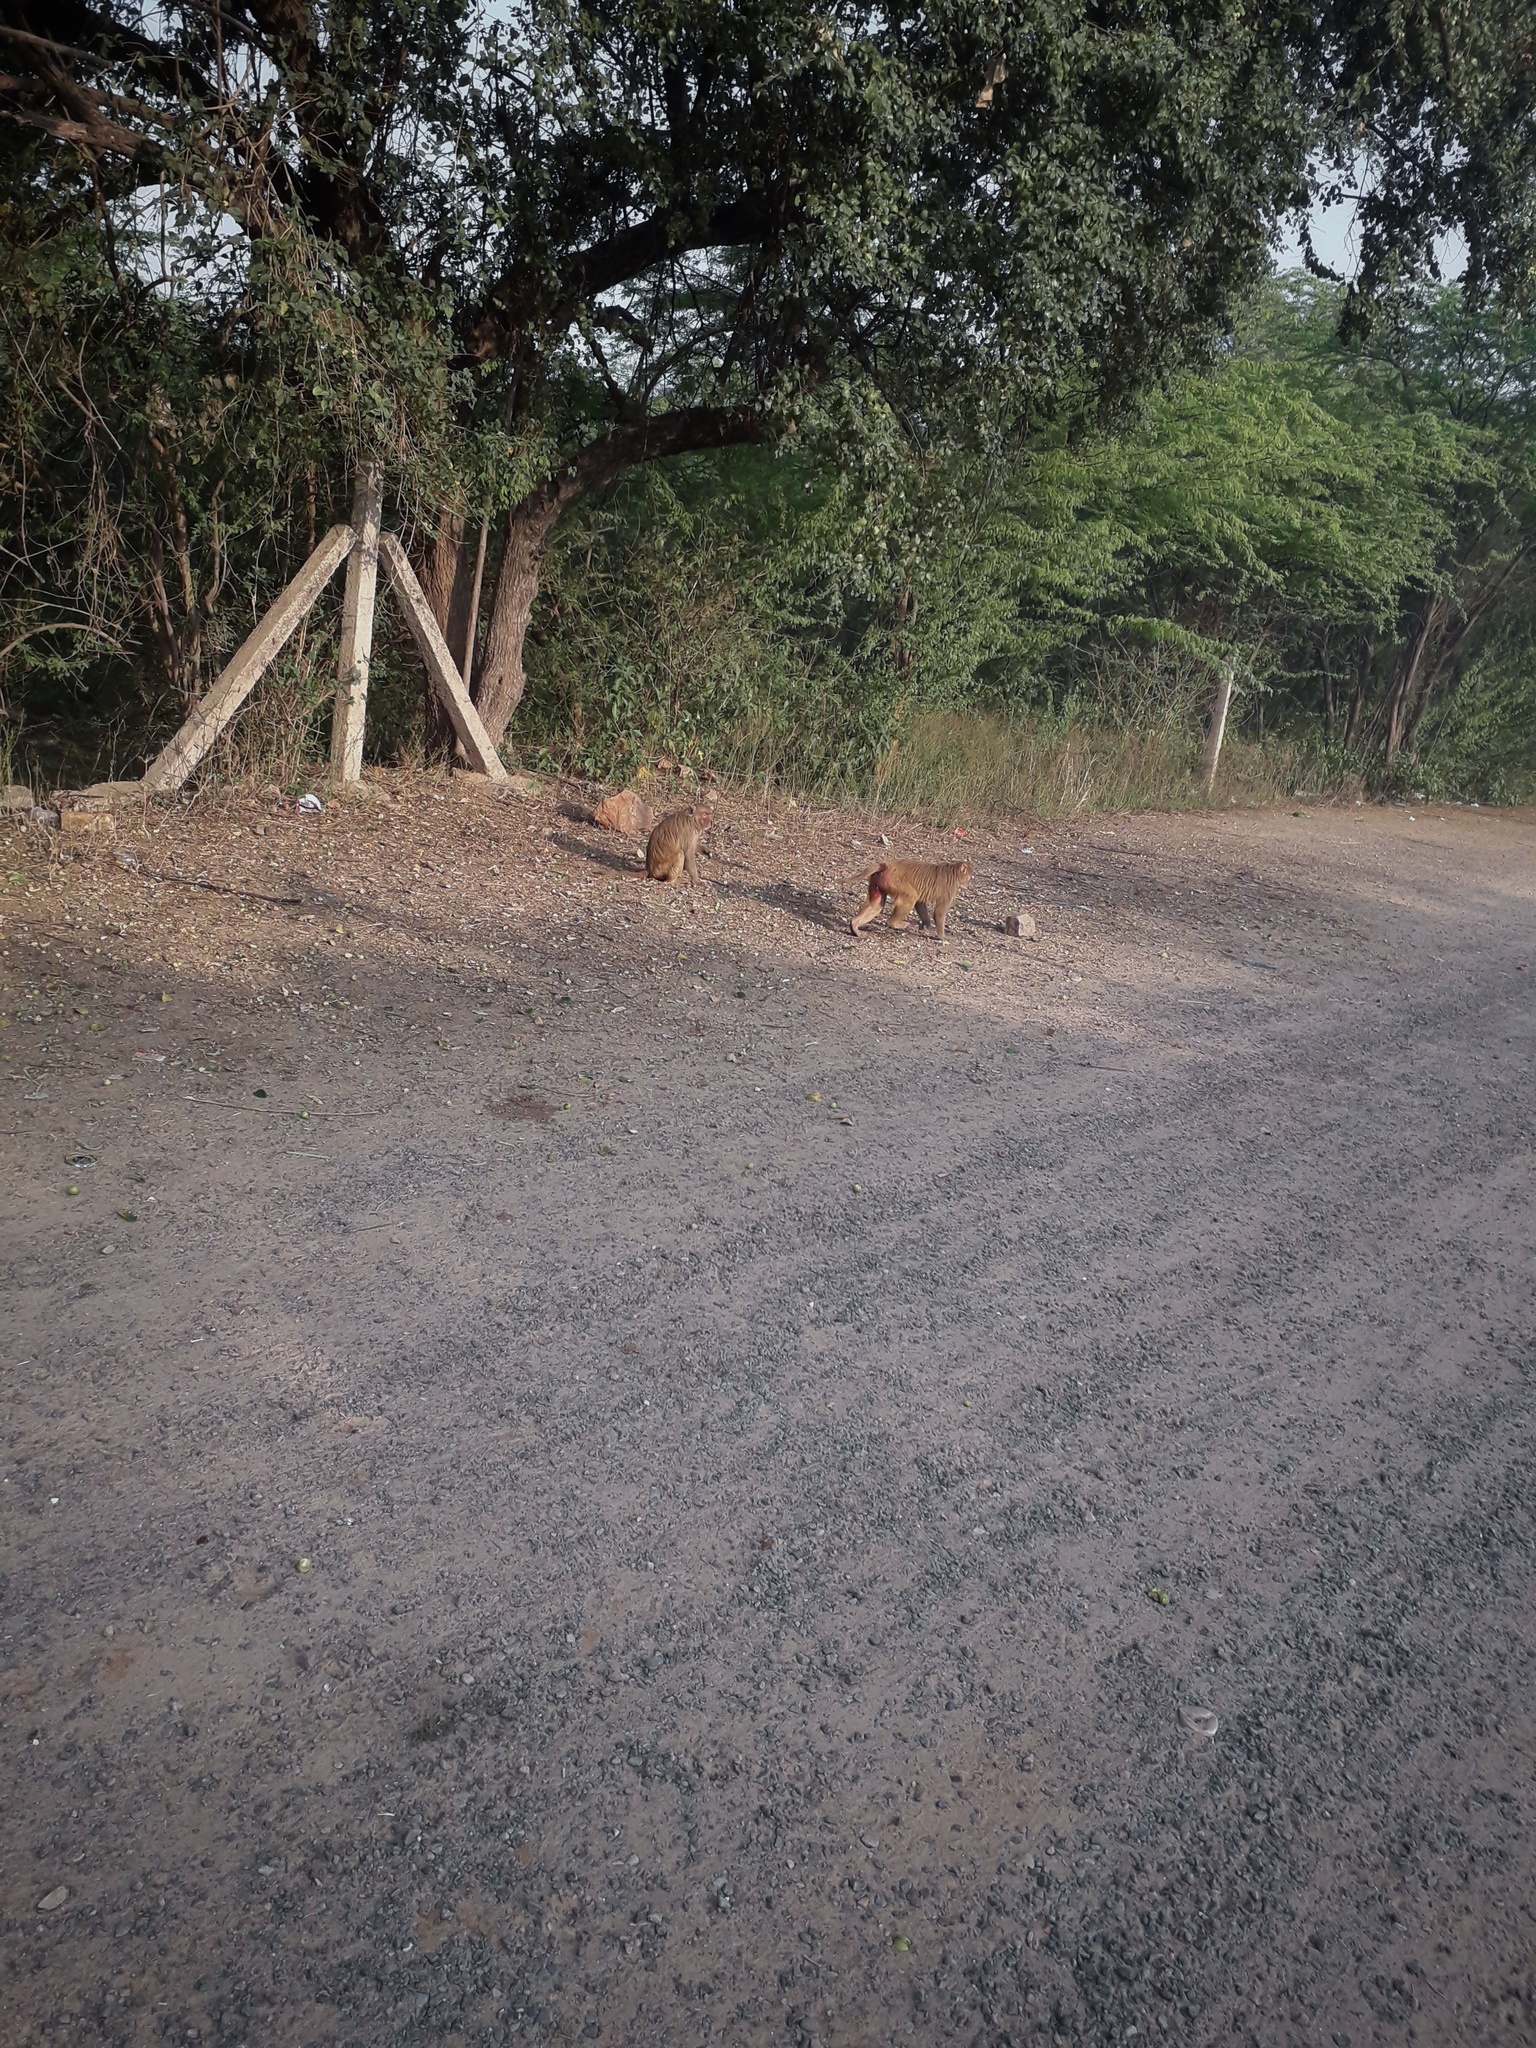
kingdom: Animalia
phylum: Chordata
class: Mammalia
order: Primates
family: Cercopithecidae
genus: Macaca
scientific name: Macaca mulatta
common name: Rhesus monkey
